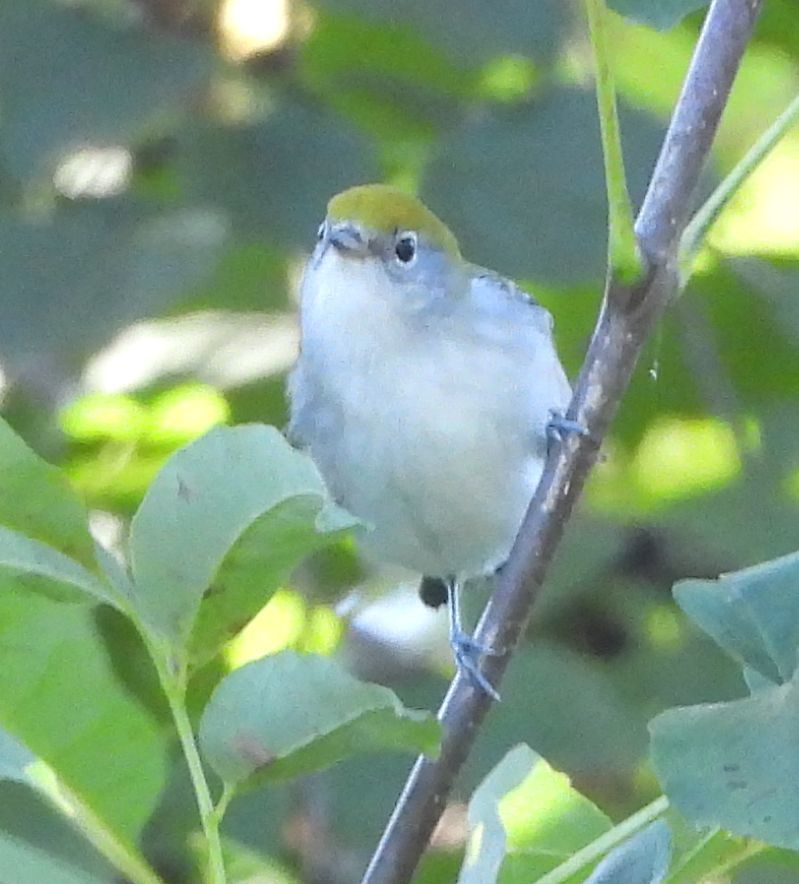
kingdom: Animalia
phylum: Chordata
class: Aves
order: Passeriformes
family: Parulidae
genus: Setophaga
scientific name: Setophaga pensylvanica
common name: Chestnut-sided warbler
